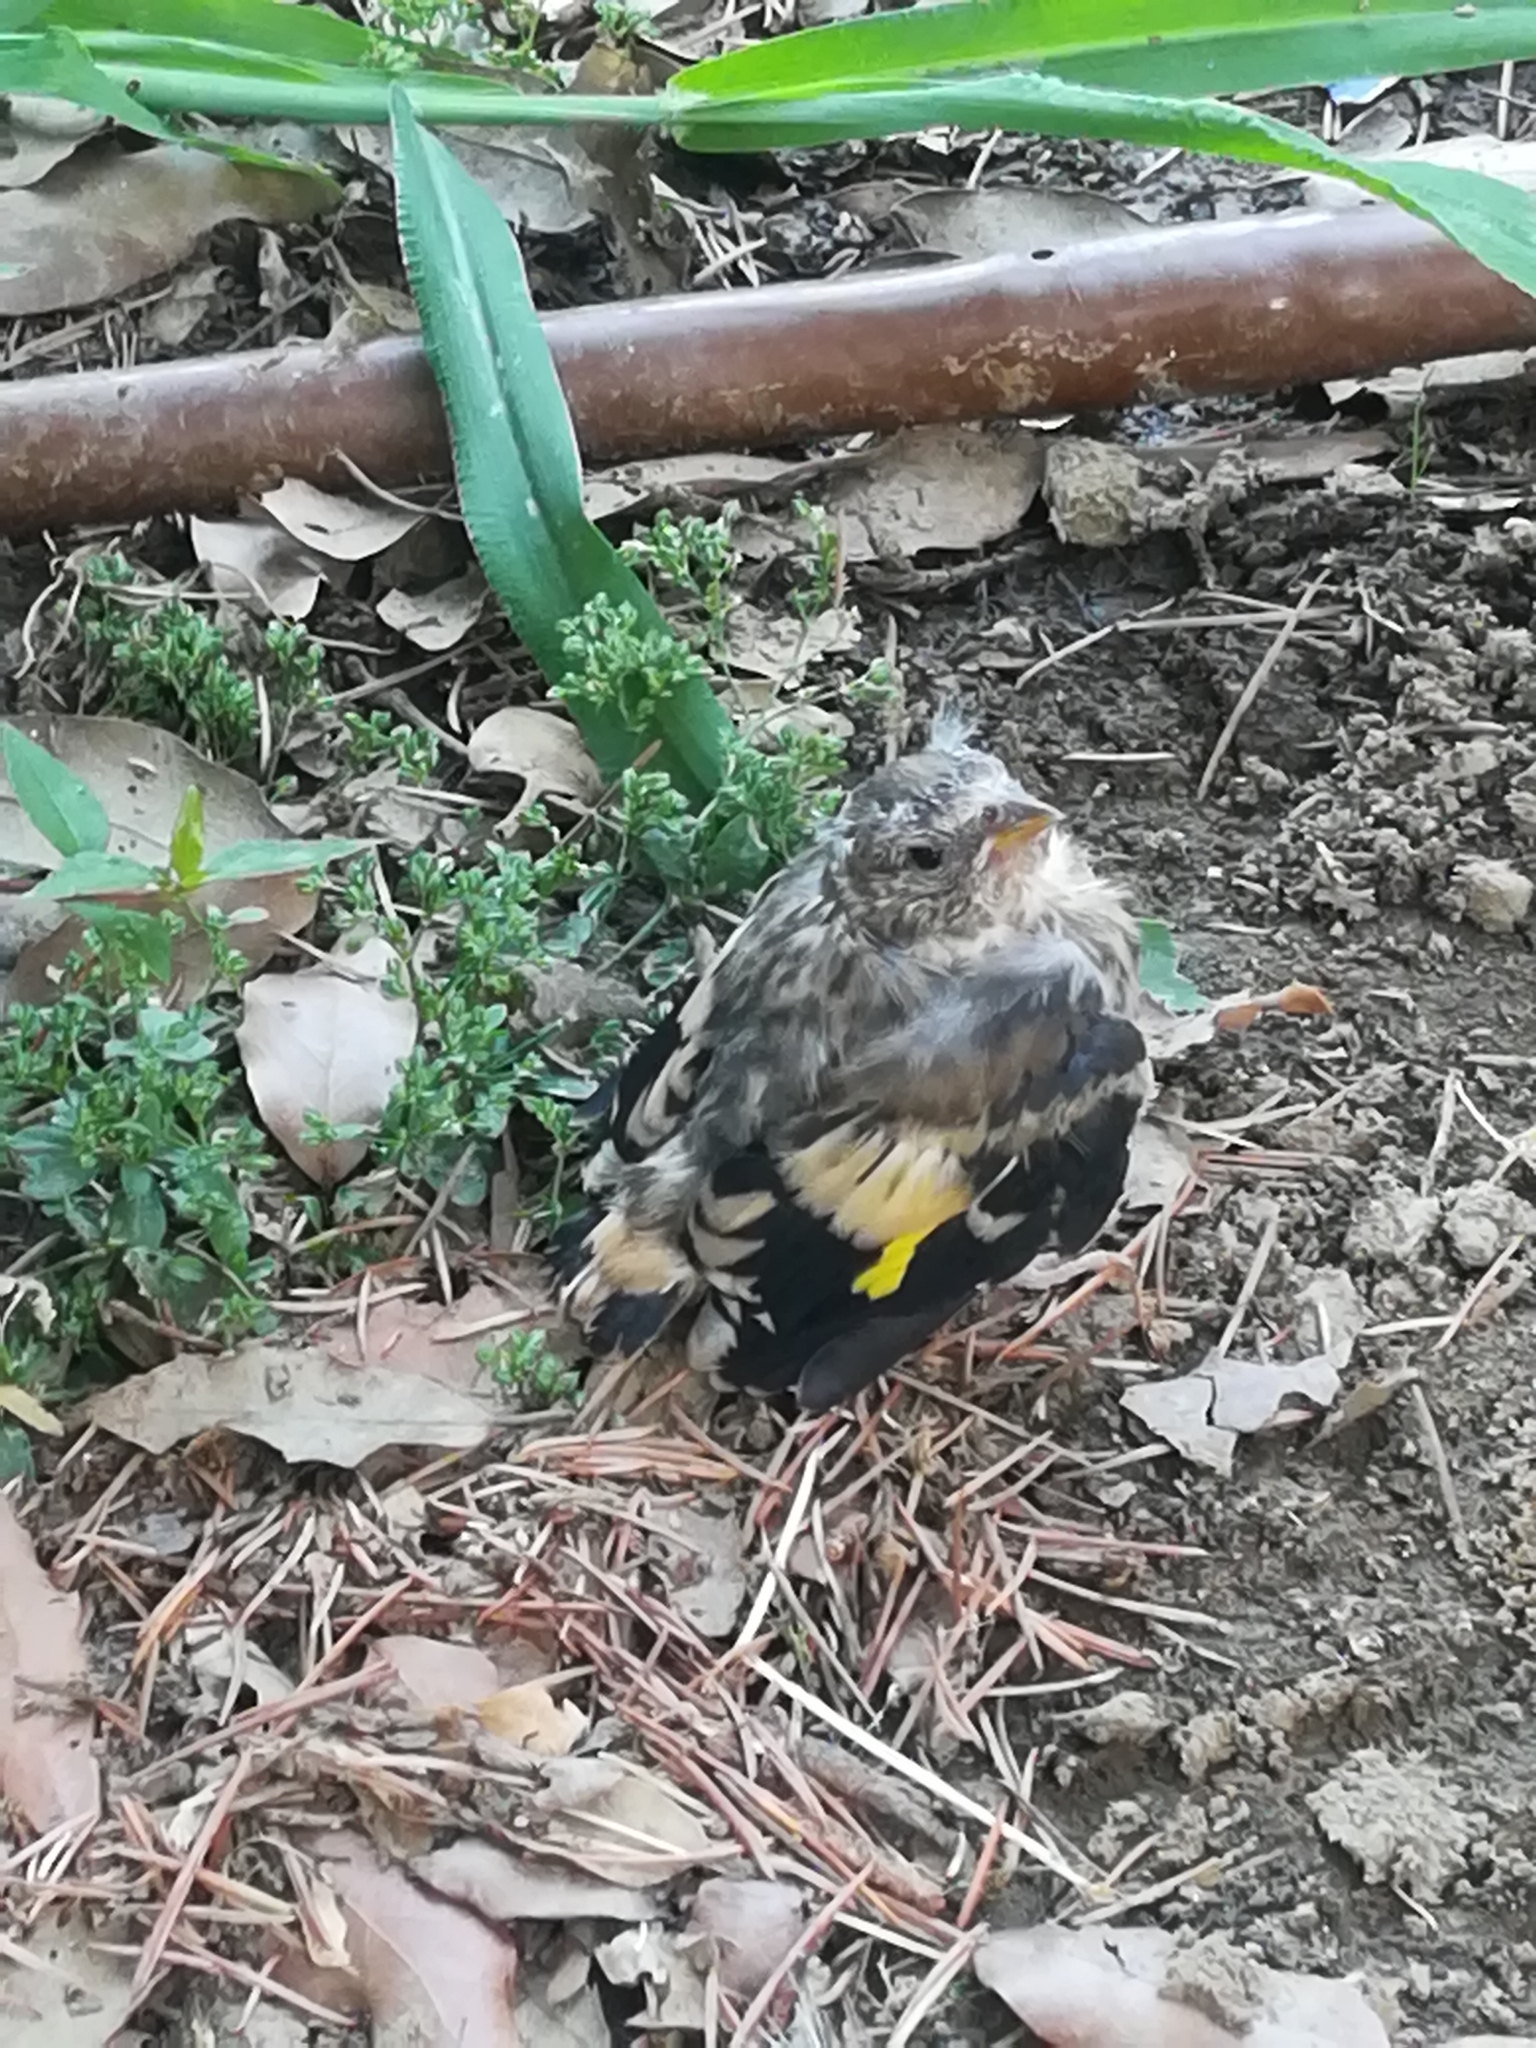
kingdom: Animalia
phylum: Chordata
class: Aves
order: Passeriformes
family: Fringillidae
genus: Carduelis
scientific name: Carduelis carduelis
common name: European goldfinch
